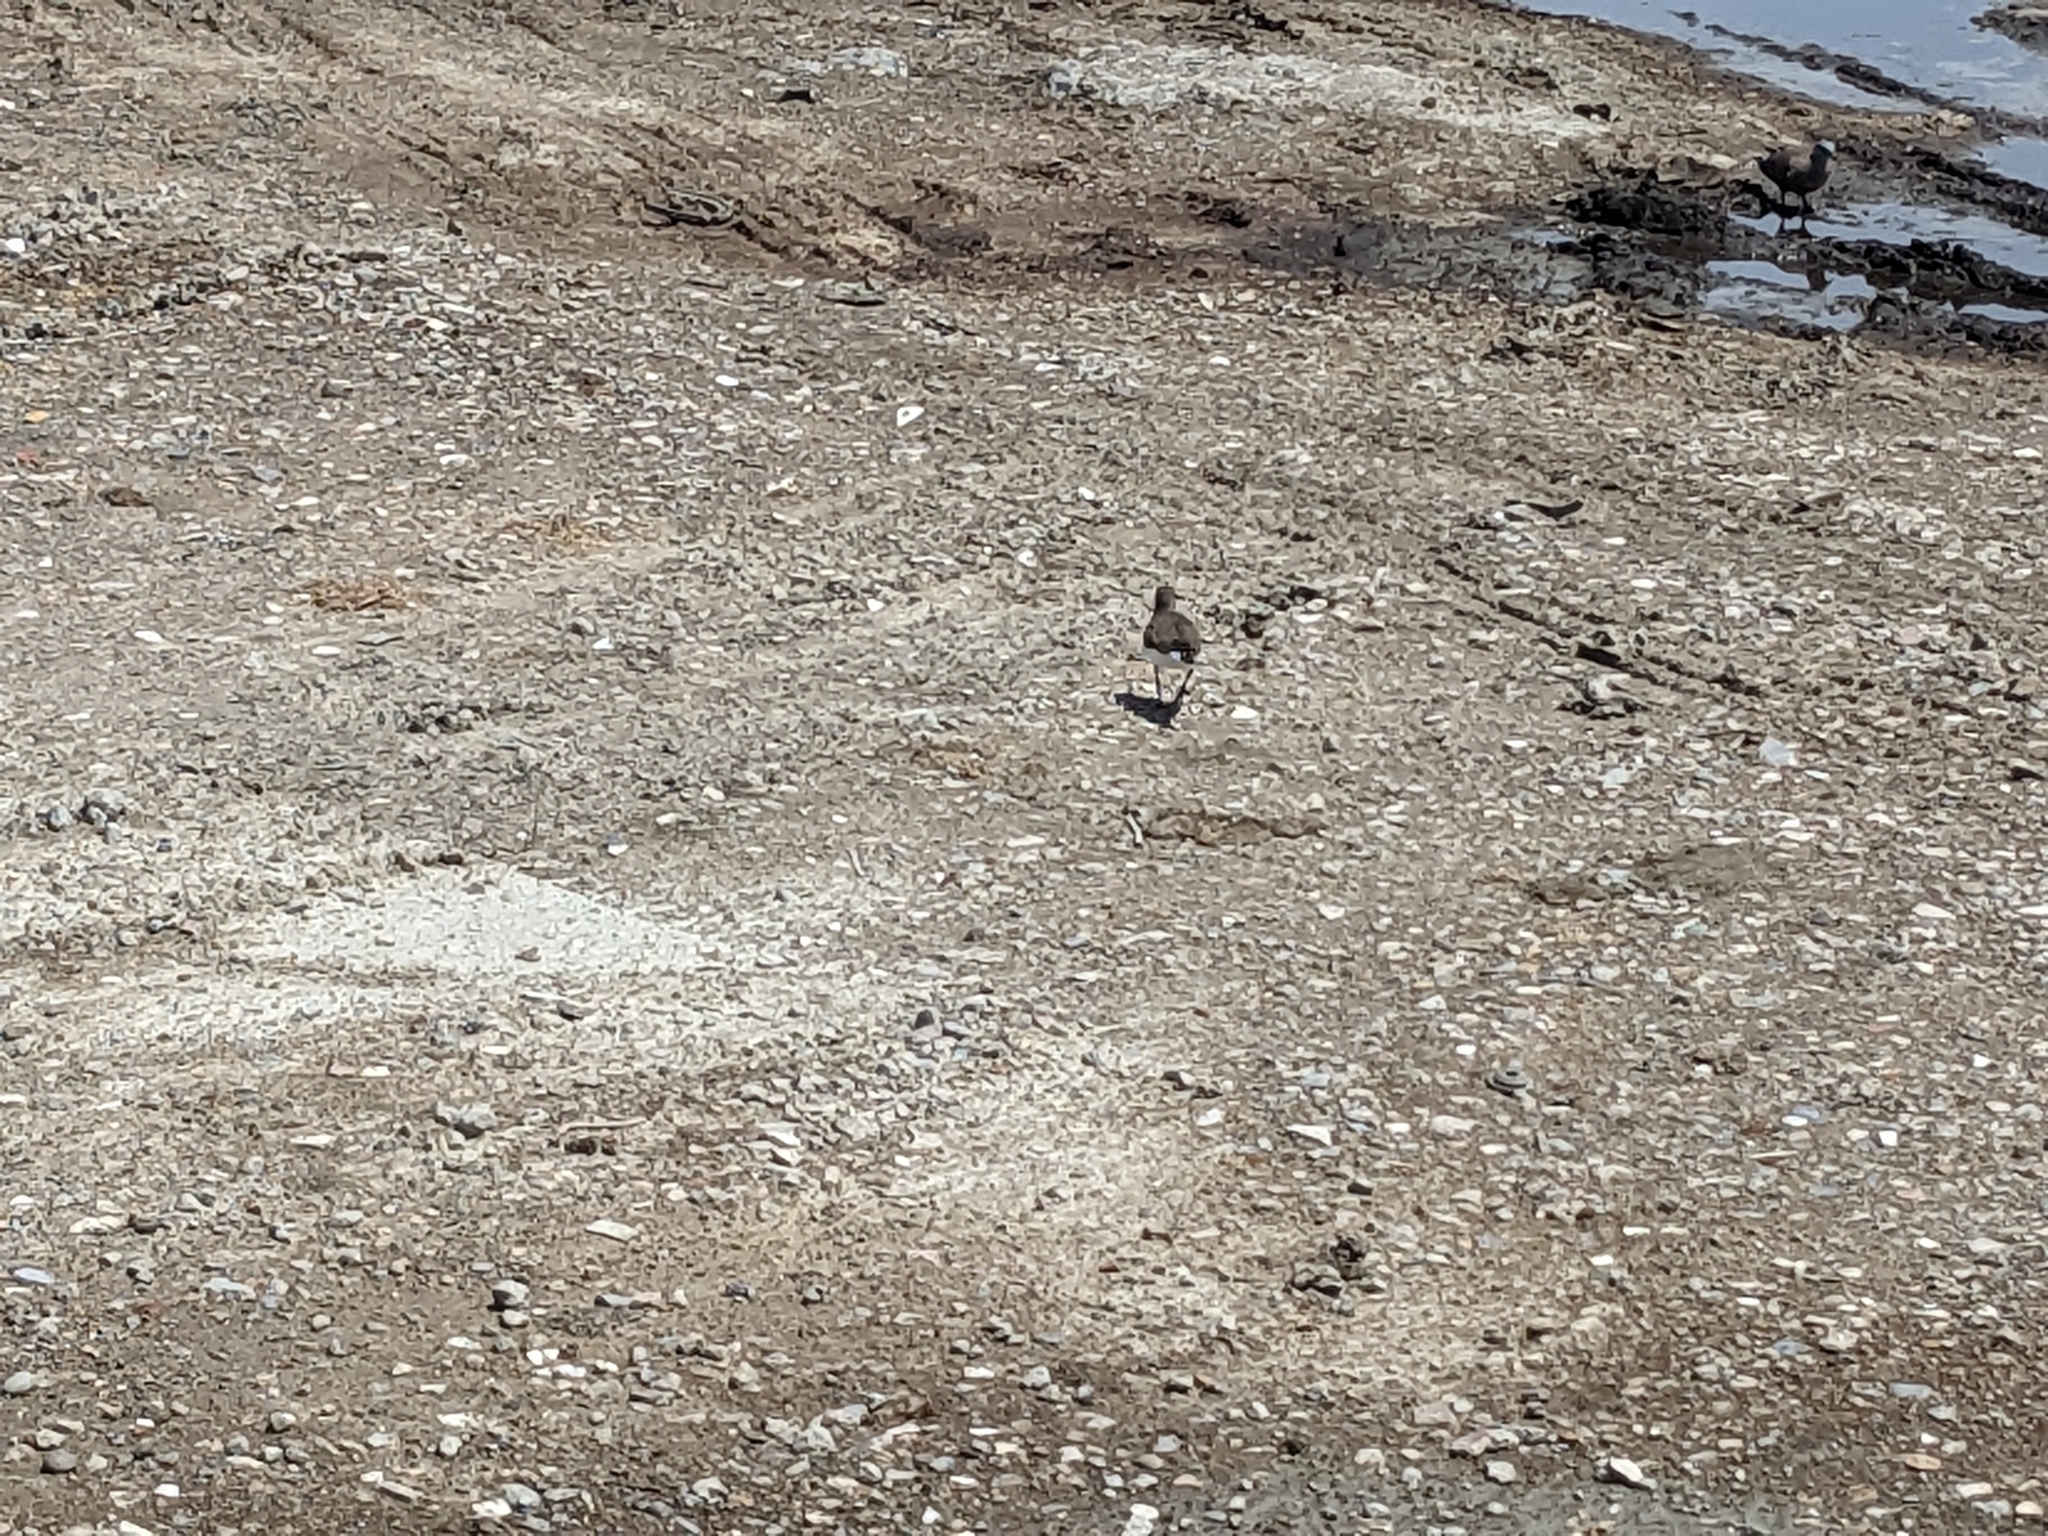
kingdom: Animalia
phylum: Chordata
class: Aves
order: Charadriiformes
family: Scolopacidae
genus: Actitis
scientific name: Actitis hypoleucos
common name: Common sandpiper
